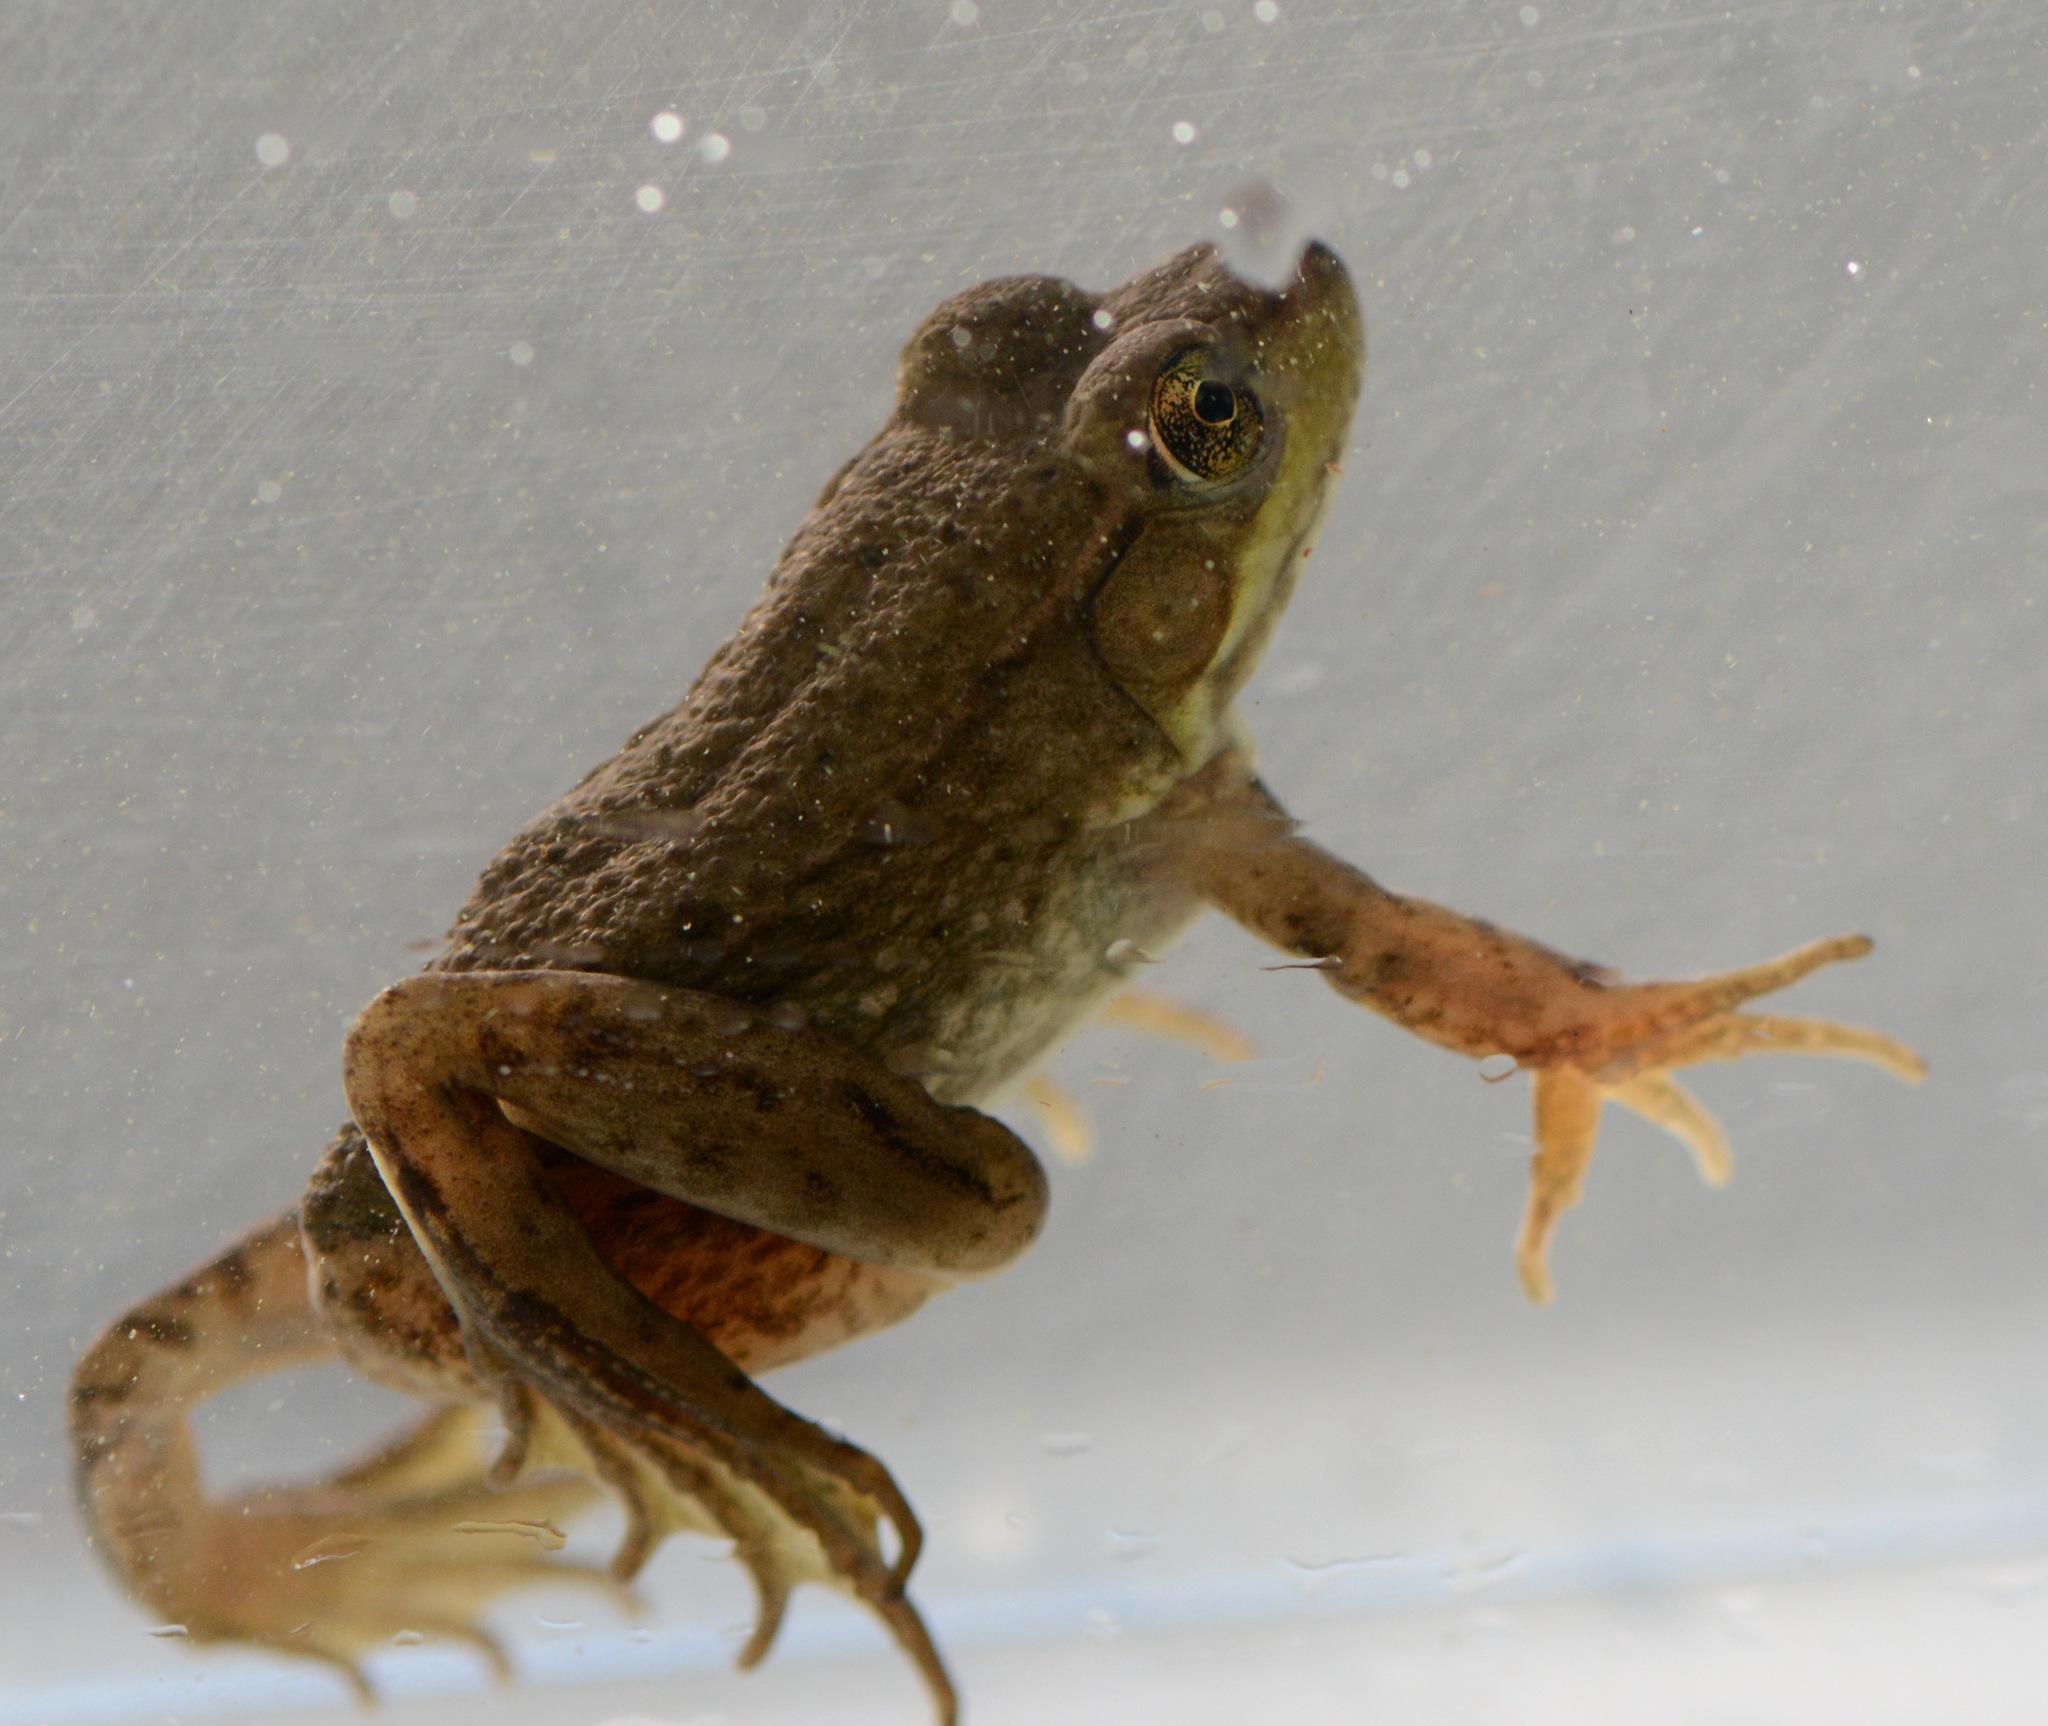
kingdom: Animalia
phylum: Chordata
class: Amphibia
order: Anura
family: Ranidae
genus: Lithobates
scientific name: Lithobates clamitans
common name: Green frog
